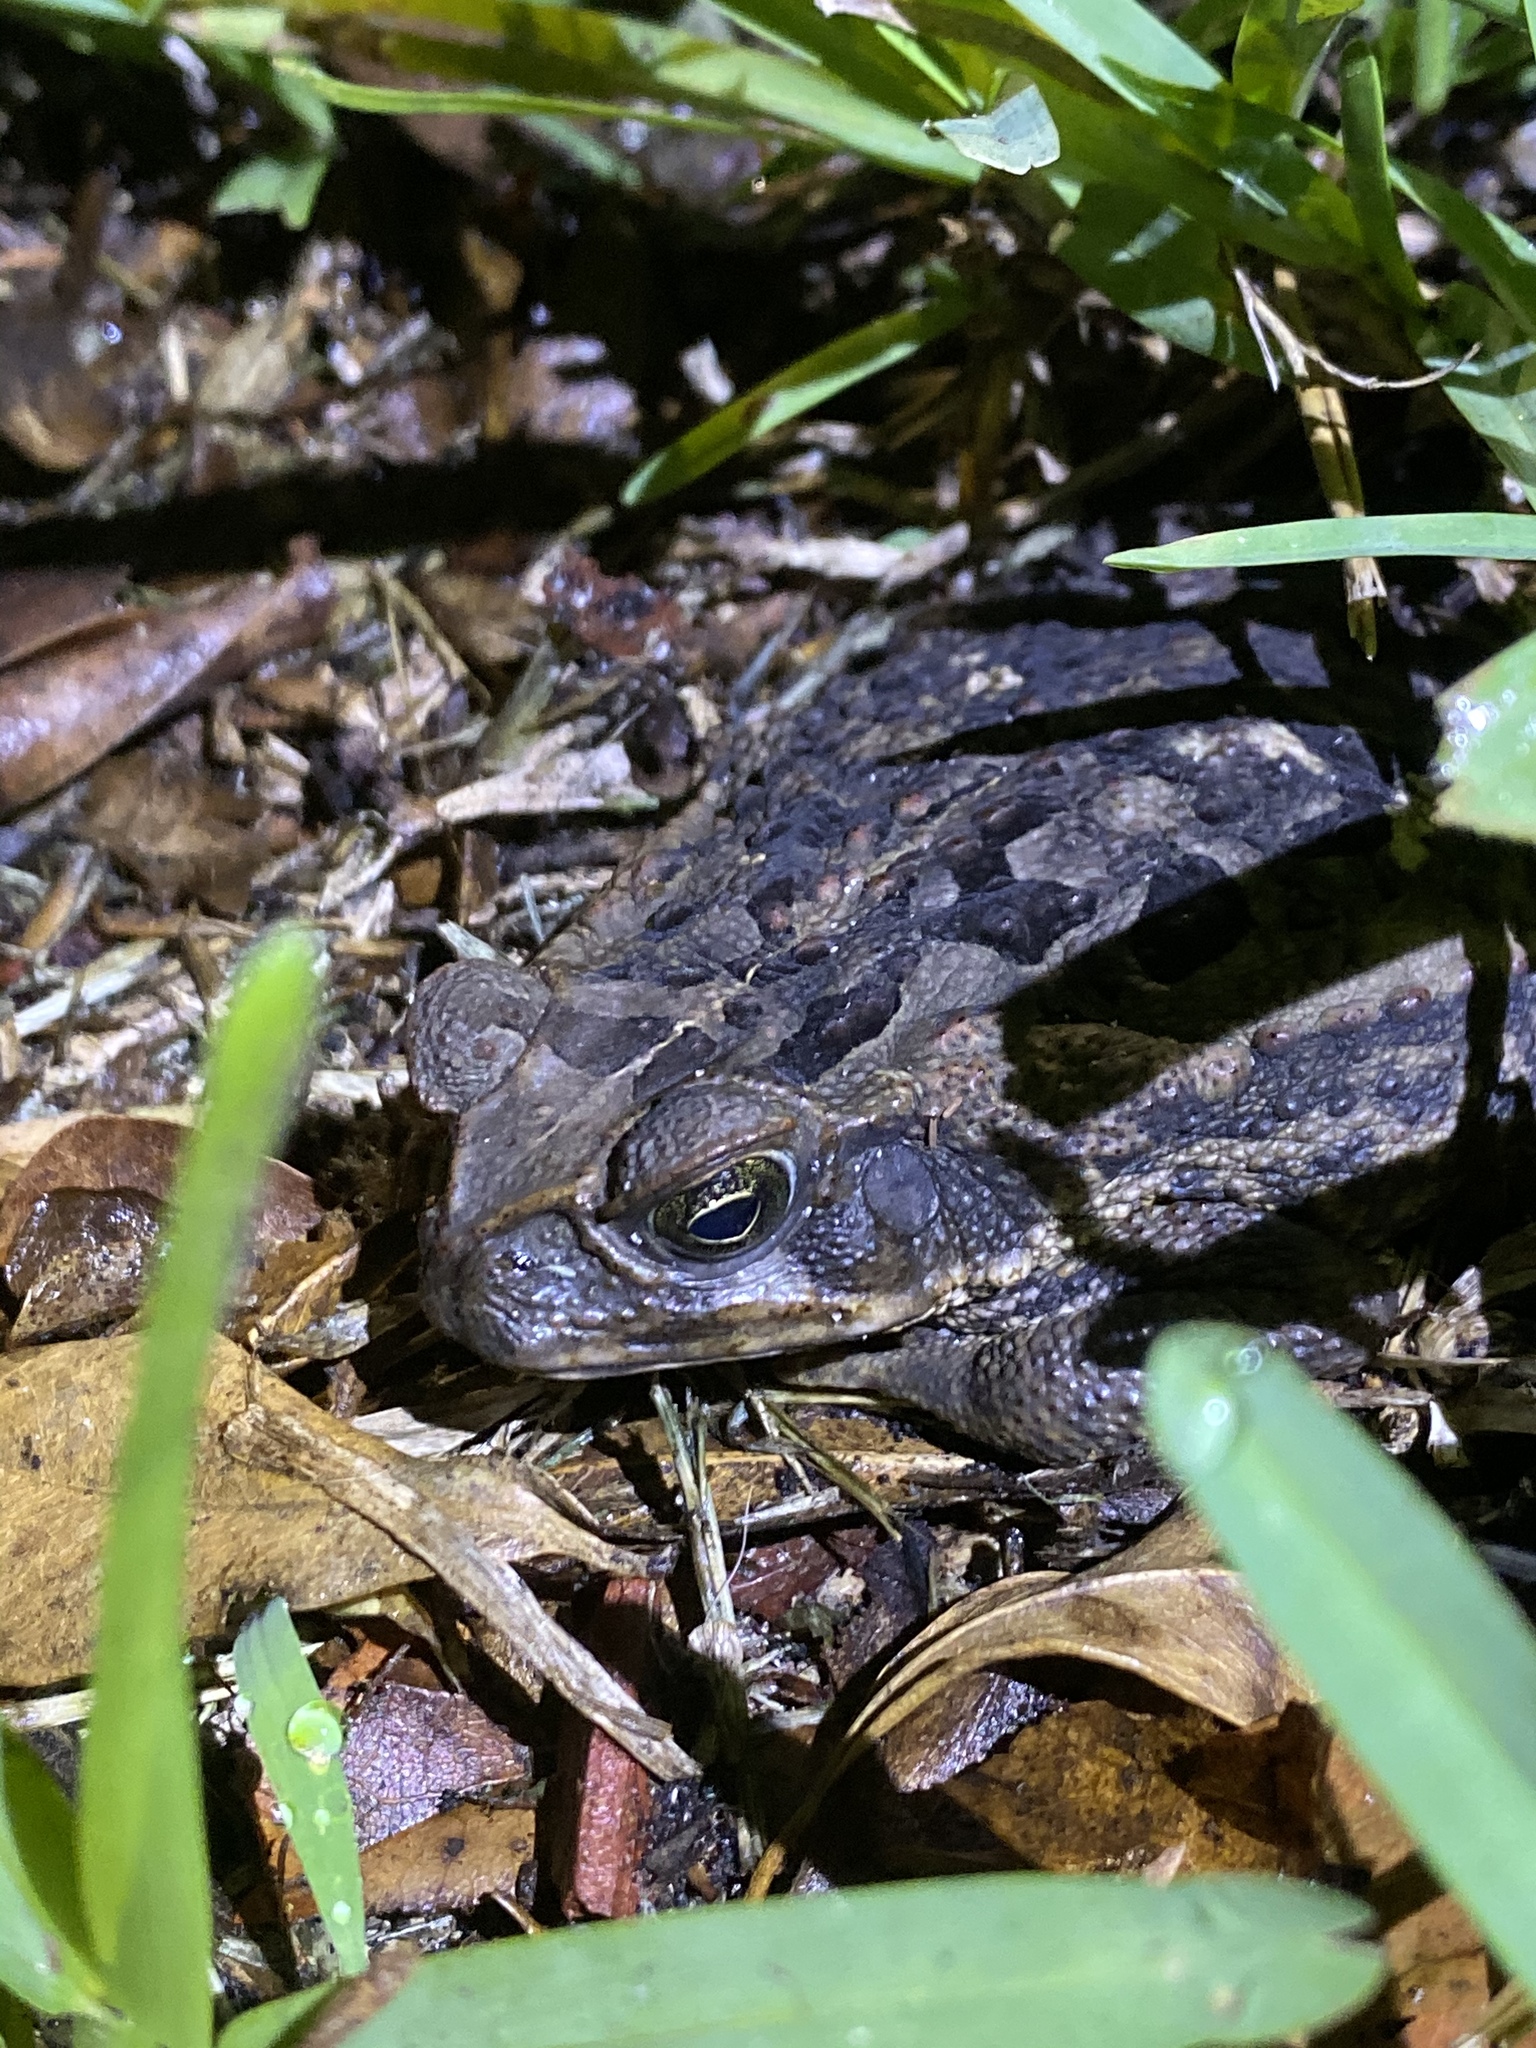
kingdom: Animalia
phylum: Chordata
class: Amphibia
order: Anura
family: Bufonidae
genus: Rhinella
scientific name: Rhinella marina
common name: Cane toad
